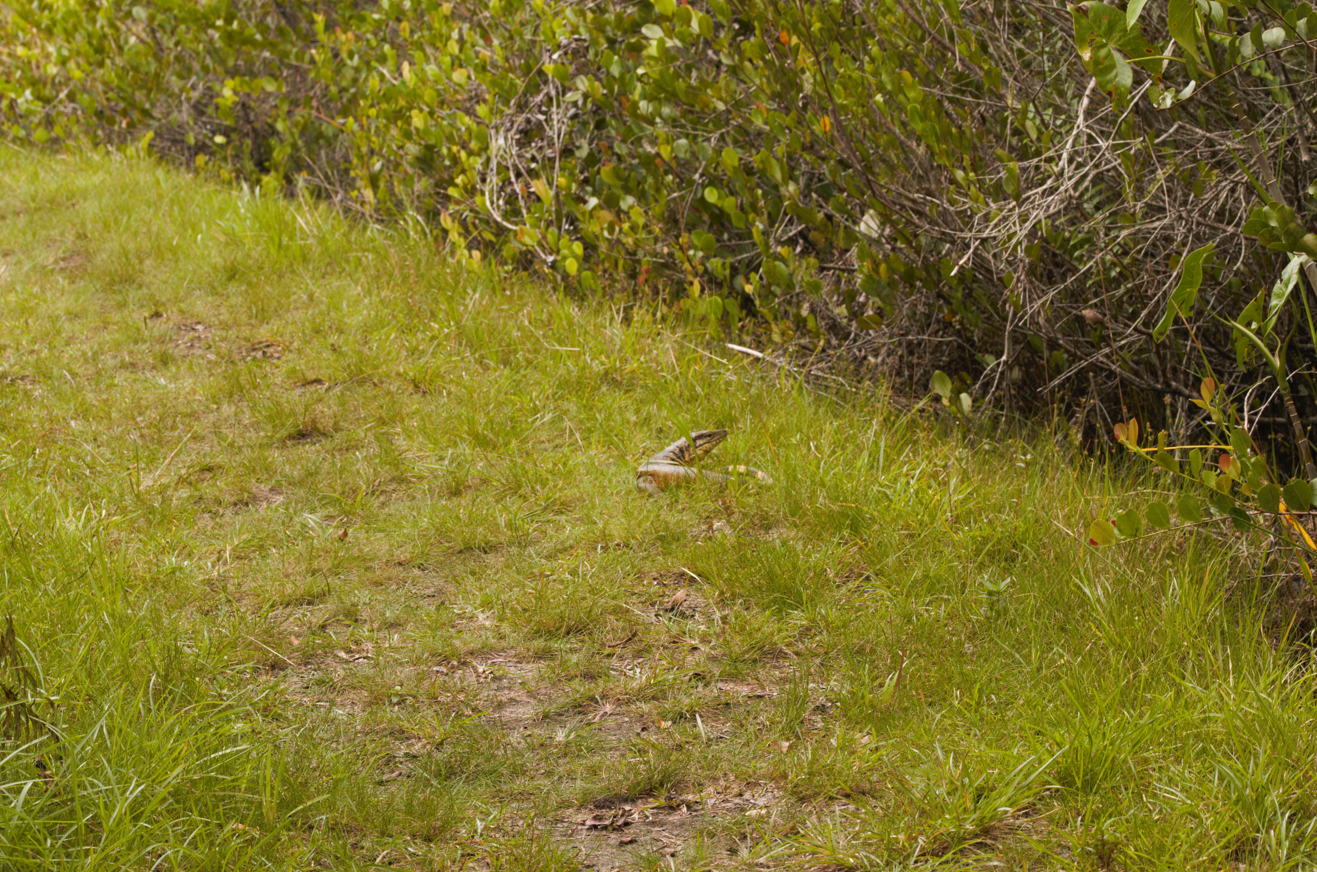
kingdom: Animalia
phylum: Chordata
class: Squamata
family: Teiidae
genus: Tupinambis
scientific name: Tupinambis teguixin
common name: Black tegu
